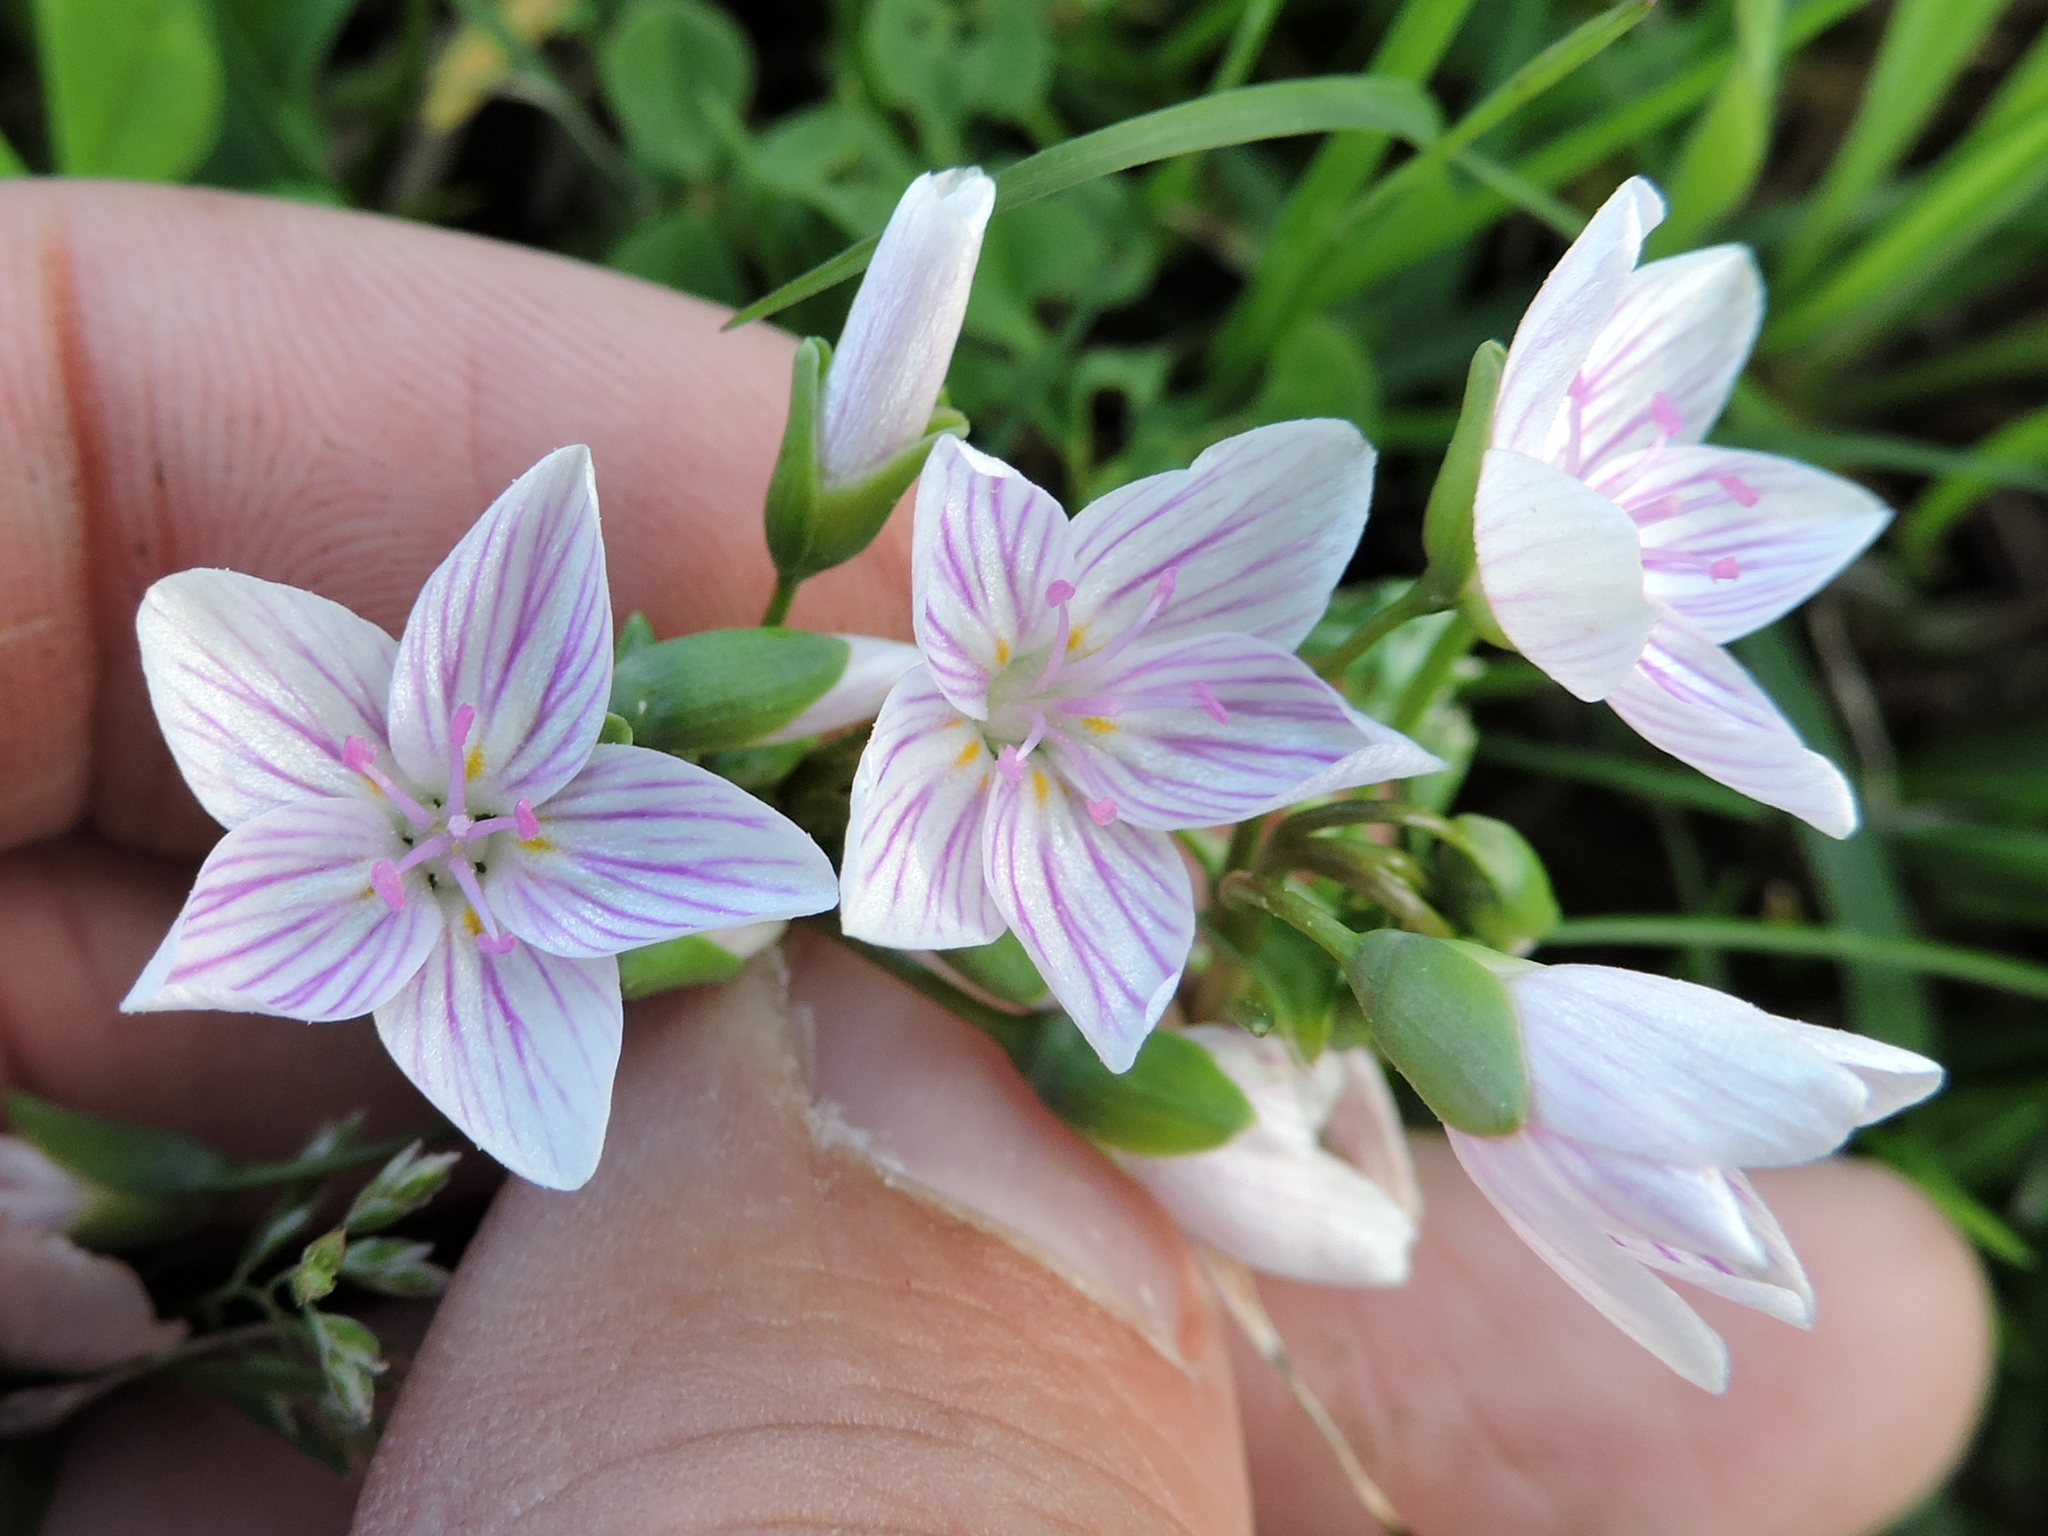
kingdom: Plantae
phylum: Tracheophyta
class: Magnoliopsida
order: Caryophyllales
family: Montiaceae
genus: Claytonia
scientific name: Claytonia virginica
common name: Virginia springbeauty
